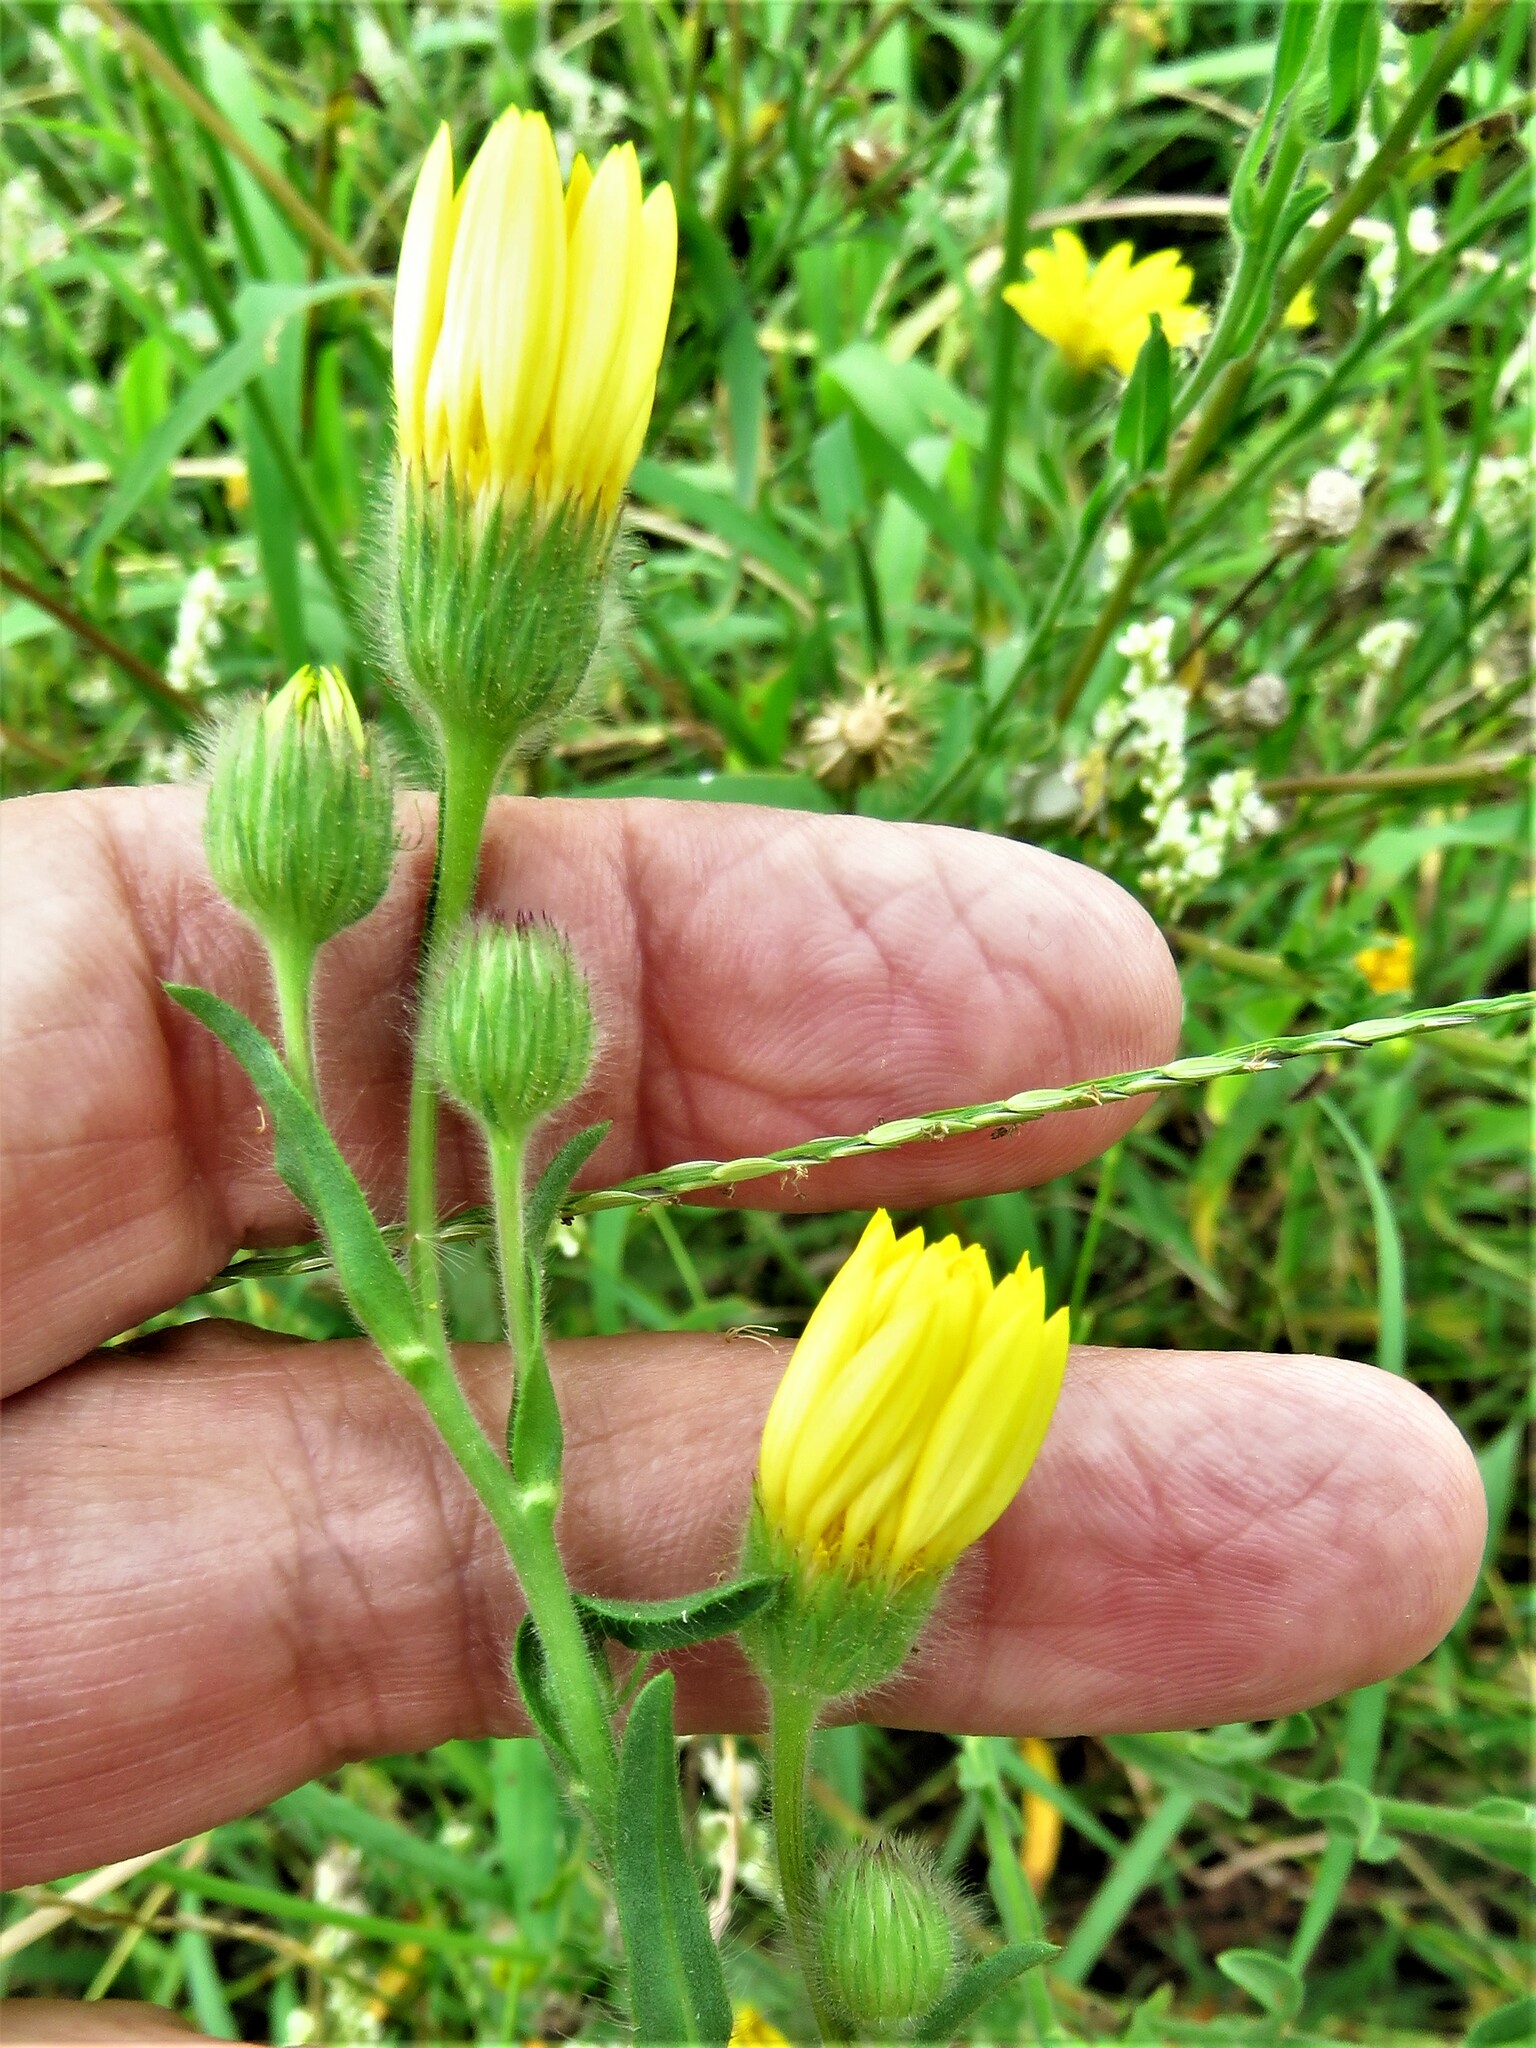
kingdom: Plantae
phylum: Tracheophyta
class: Magnoliopsida
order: Asterales
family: Asteraceae
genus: Bradburia
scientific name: Bradburia pilosa
